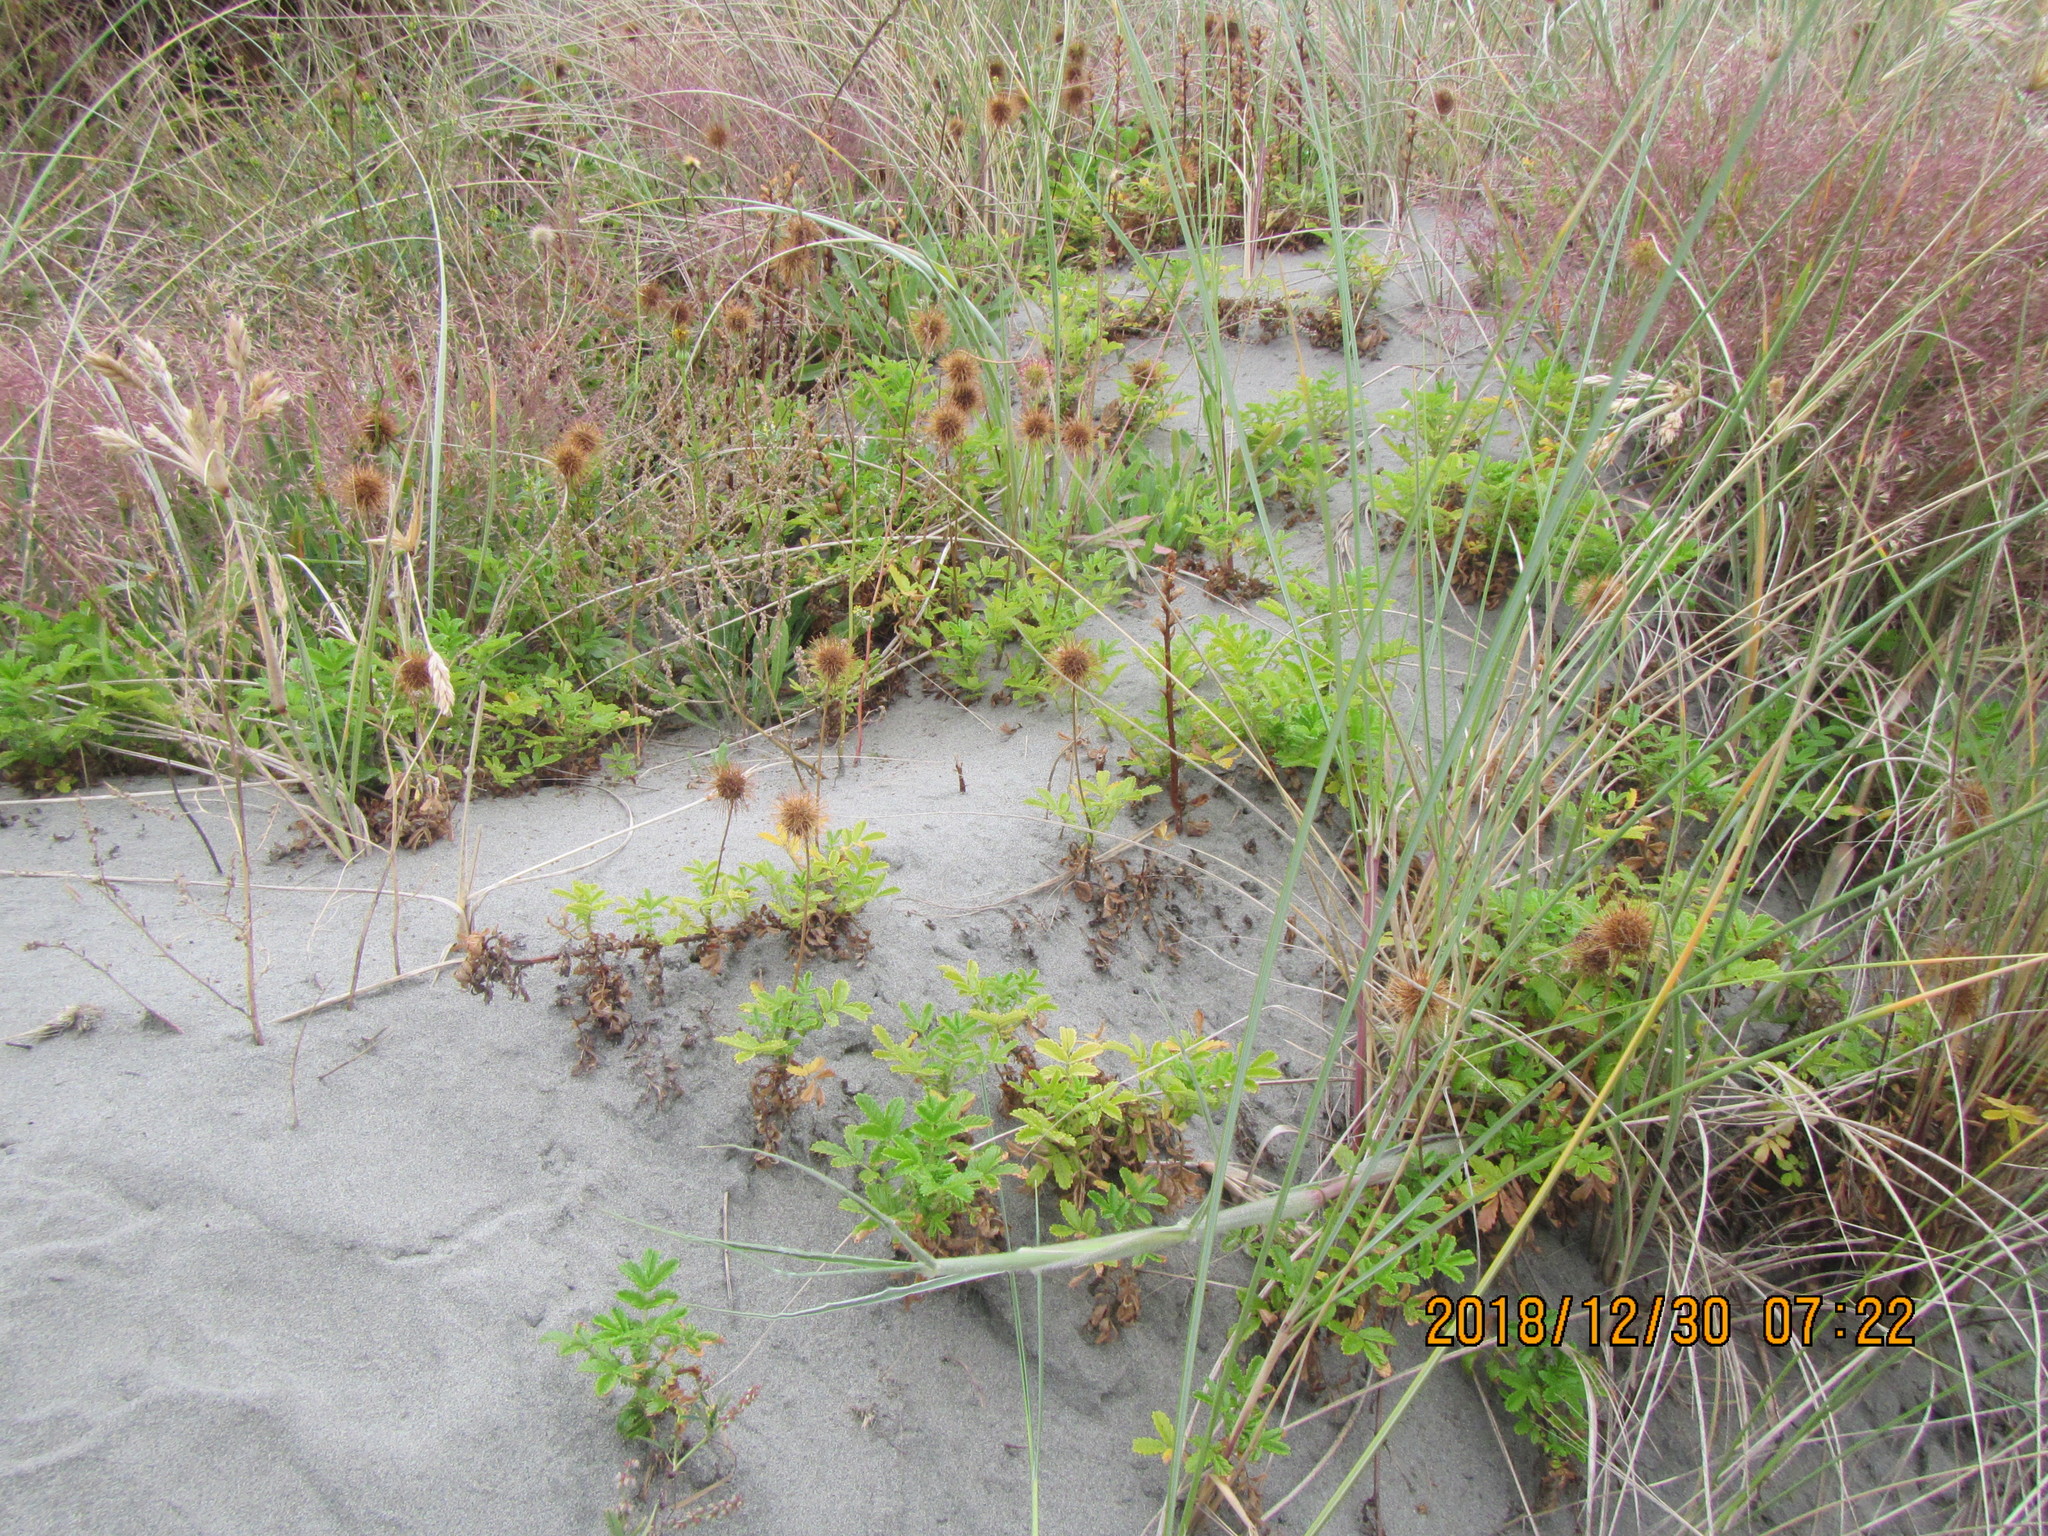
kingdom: Plantae
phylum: Tracheophyta
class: Magnoliopsida
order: Rosales
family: Rosaceae
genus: Acaena
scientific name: Acaena novae-zelandiae
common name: Pirri-pirri-bur
